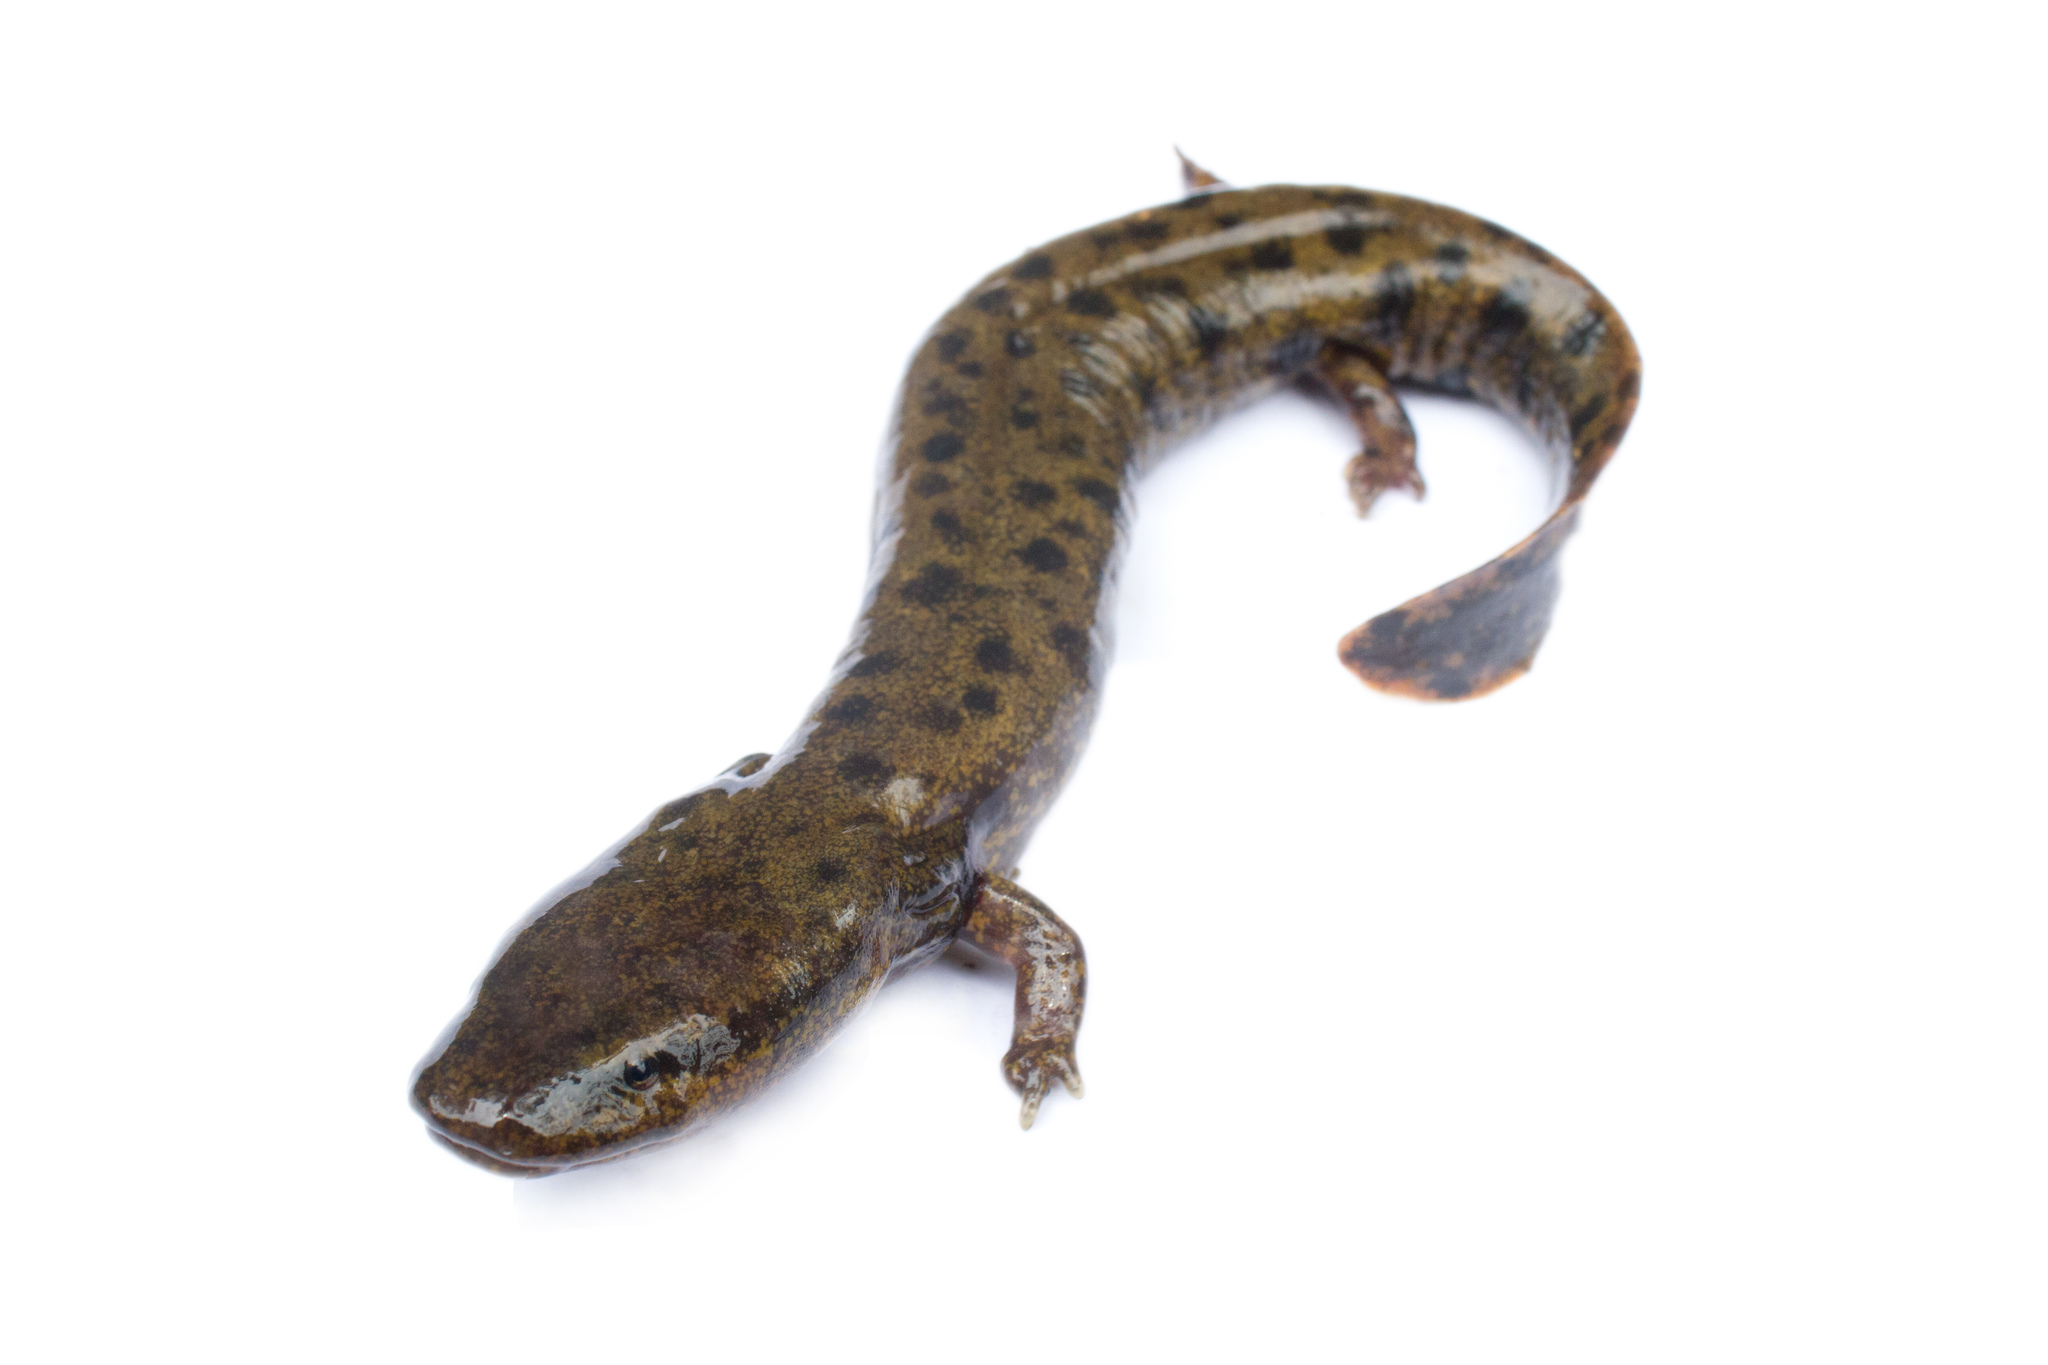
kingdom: Animalia
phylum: Chordata
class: Amphibia
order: Caudata
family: Proteidae
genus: Necturus
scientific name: Necturus maculosus
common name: Mudpuppy
